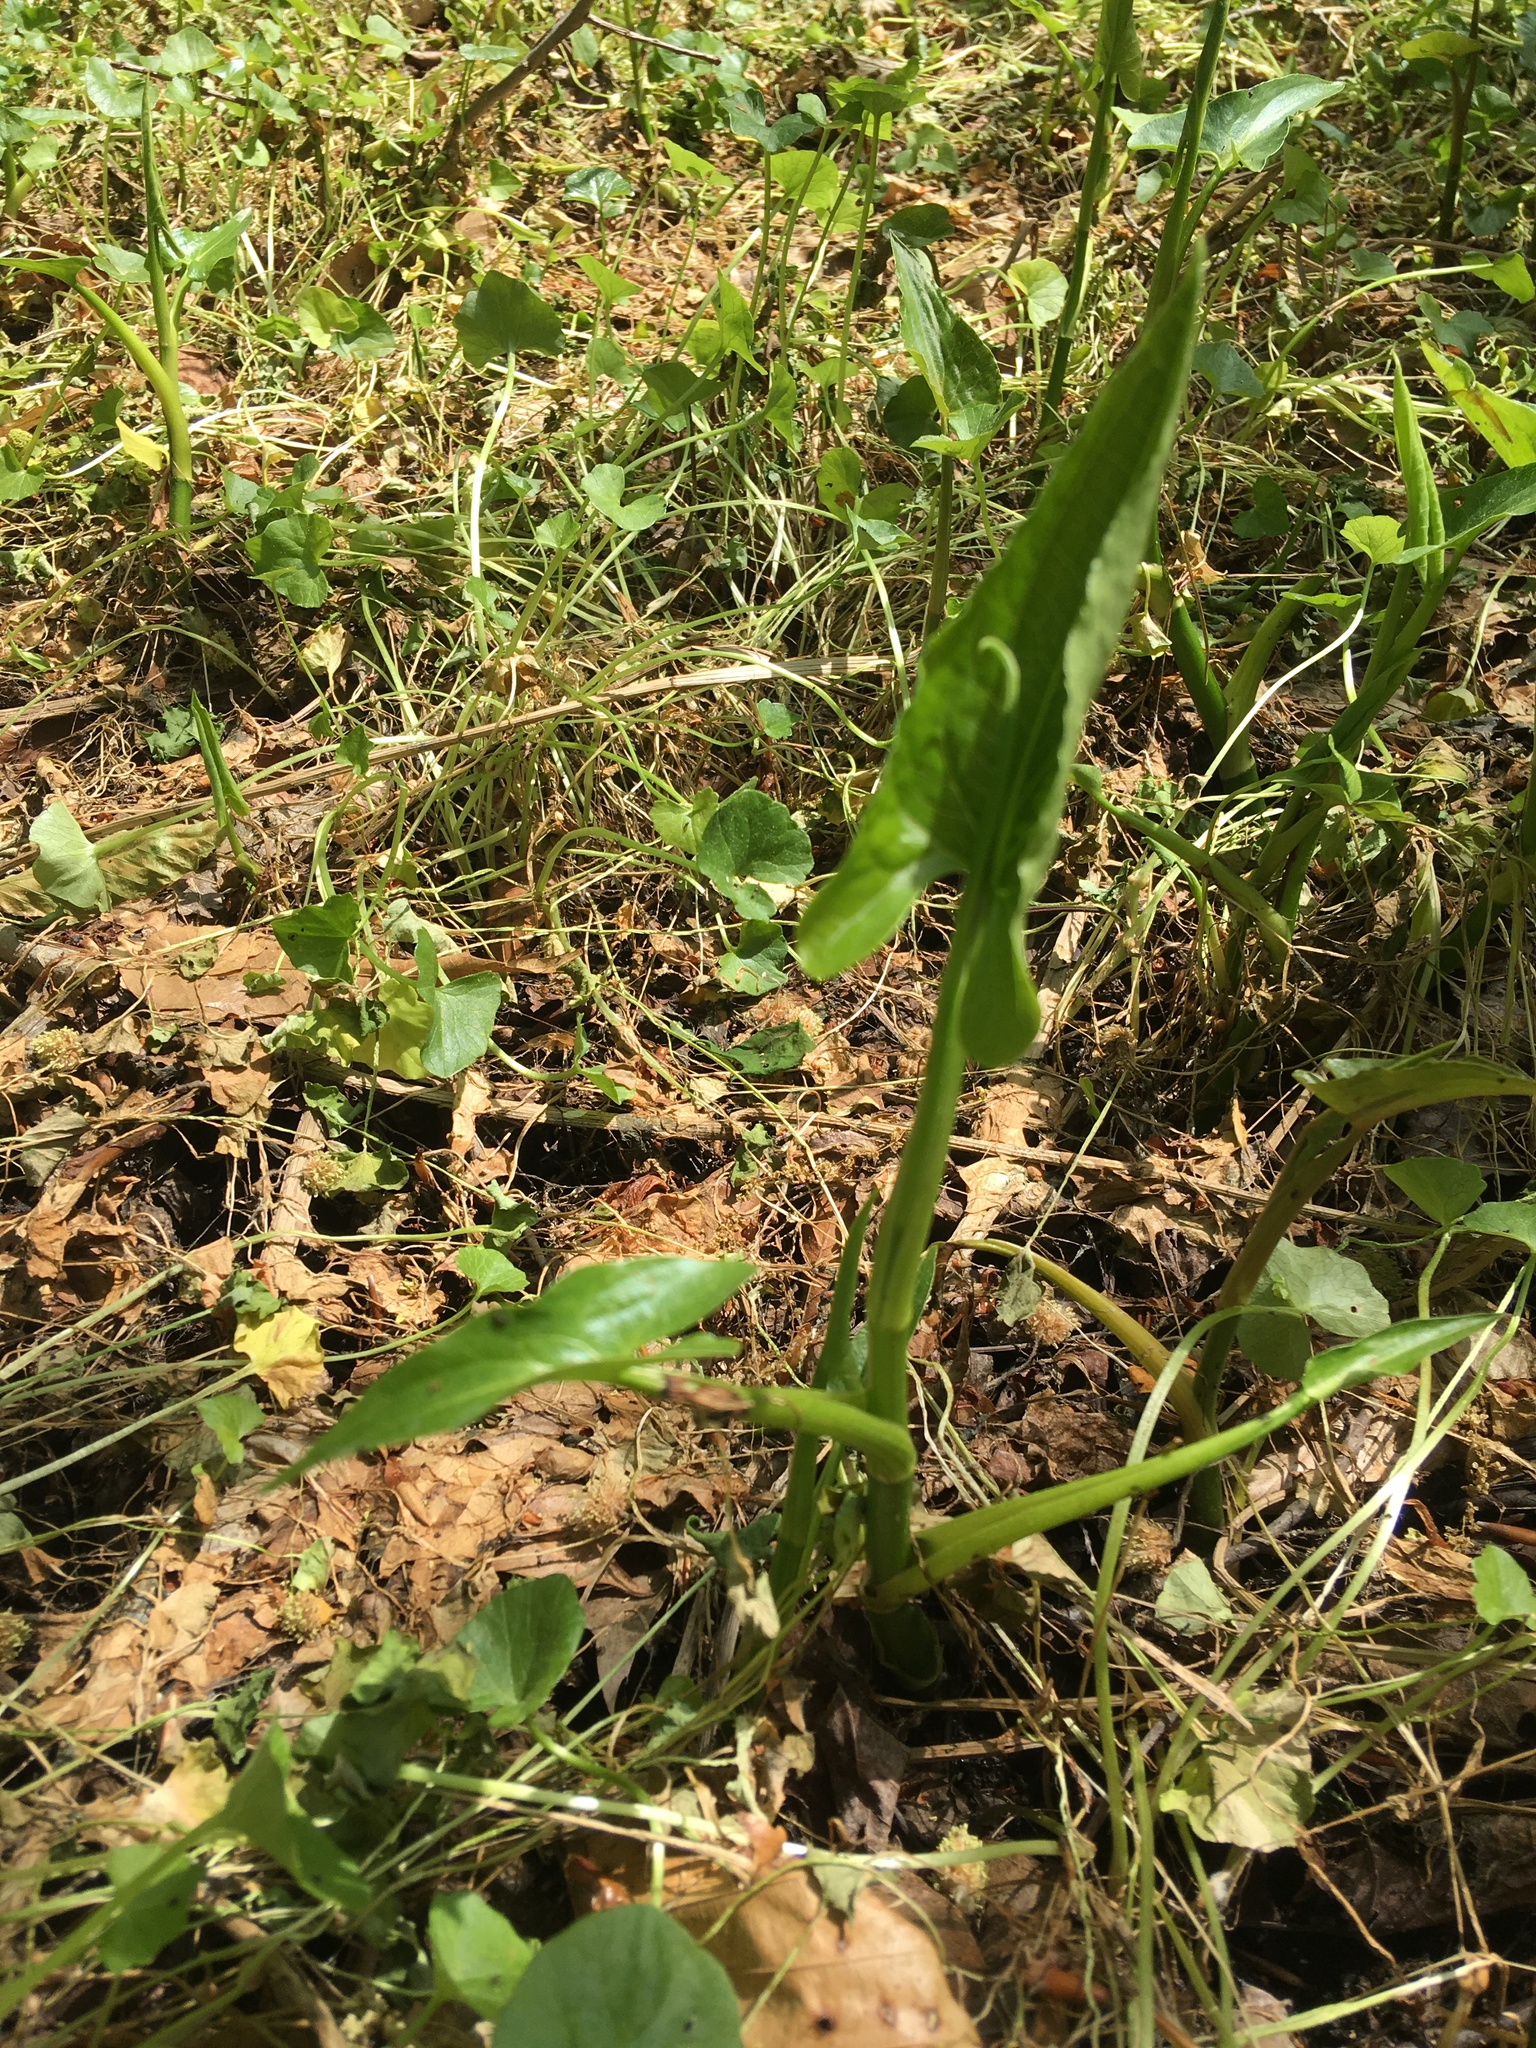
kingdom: Plantae
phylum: Tracheophyta
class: Liliopsida
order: Alismatales
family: Araceae
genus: Peltandra
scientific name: Peltandra virginica
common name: Arrow arum
